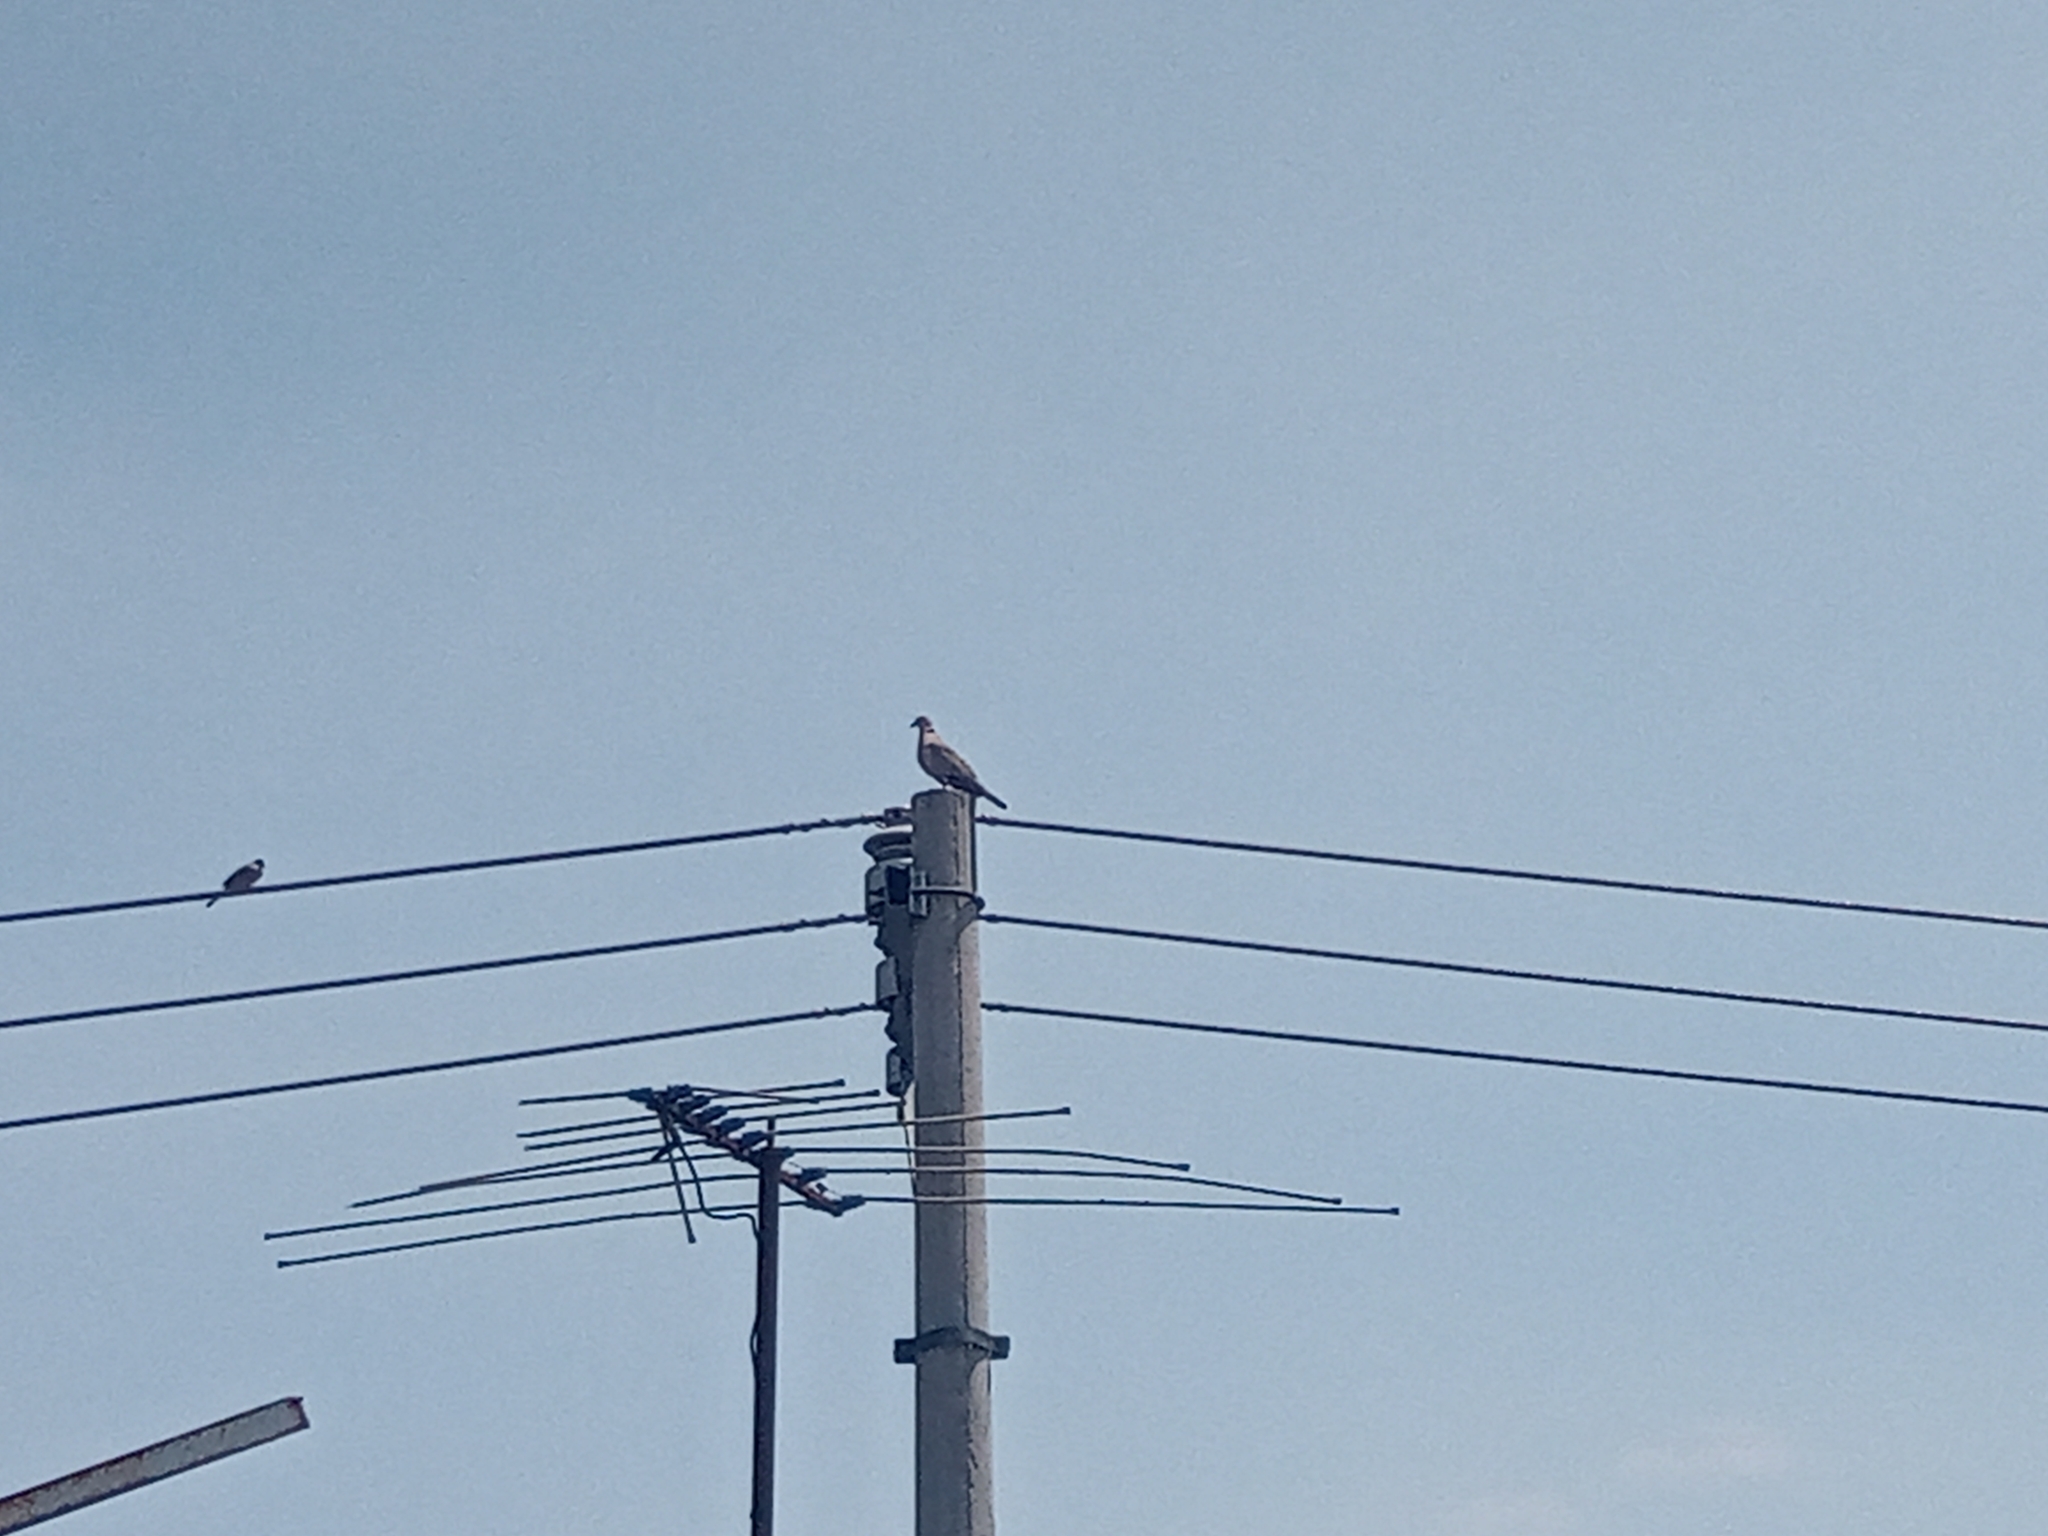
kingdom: Animalia
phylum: Chordata
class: Aves
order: Columbiformes
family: Columbidae
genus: Streptopelia
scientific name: Streptopelia decaocto
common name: Eurasian collared dove
